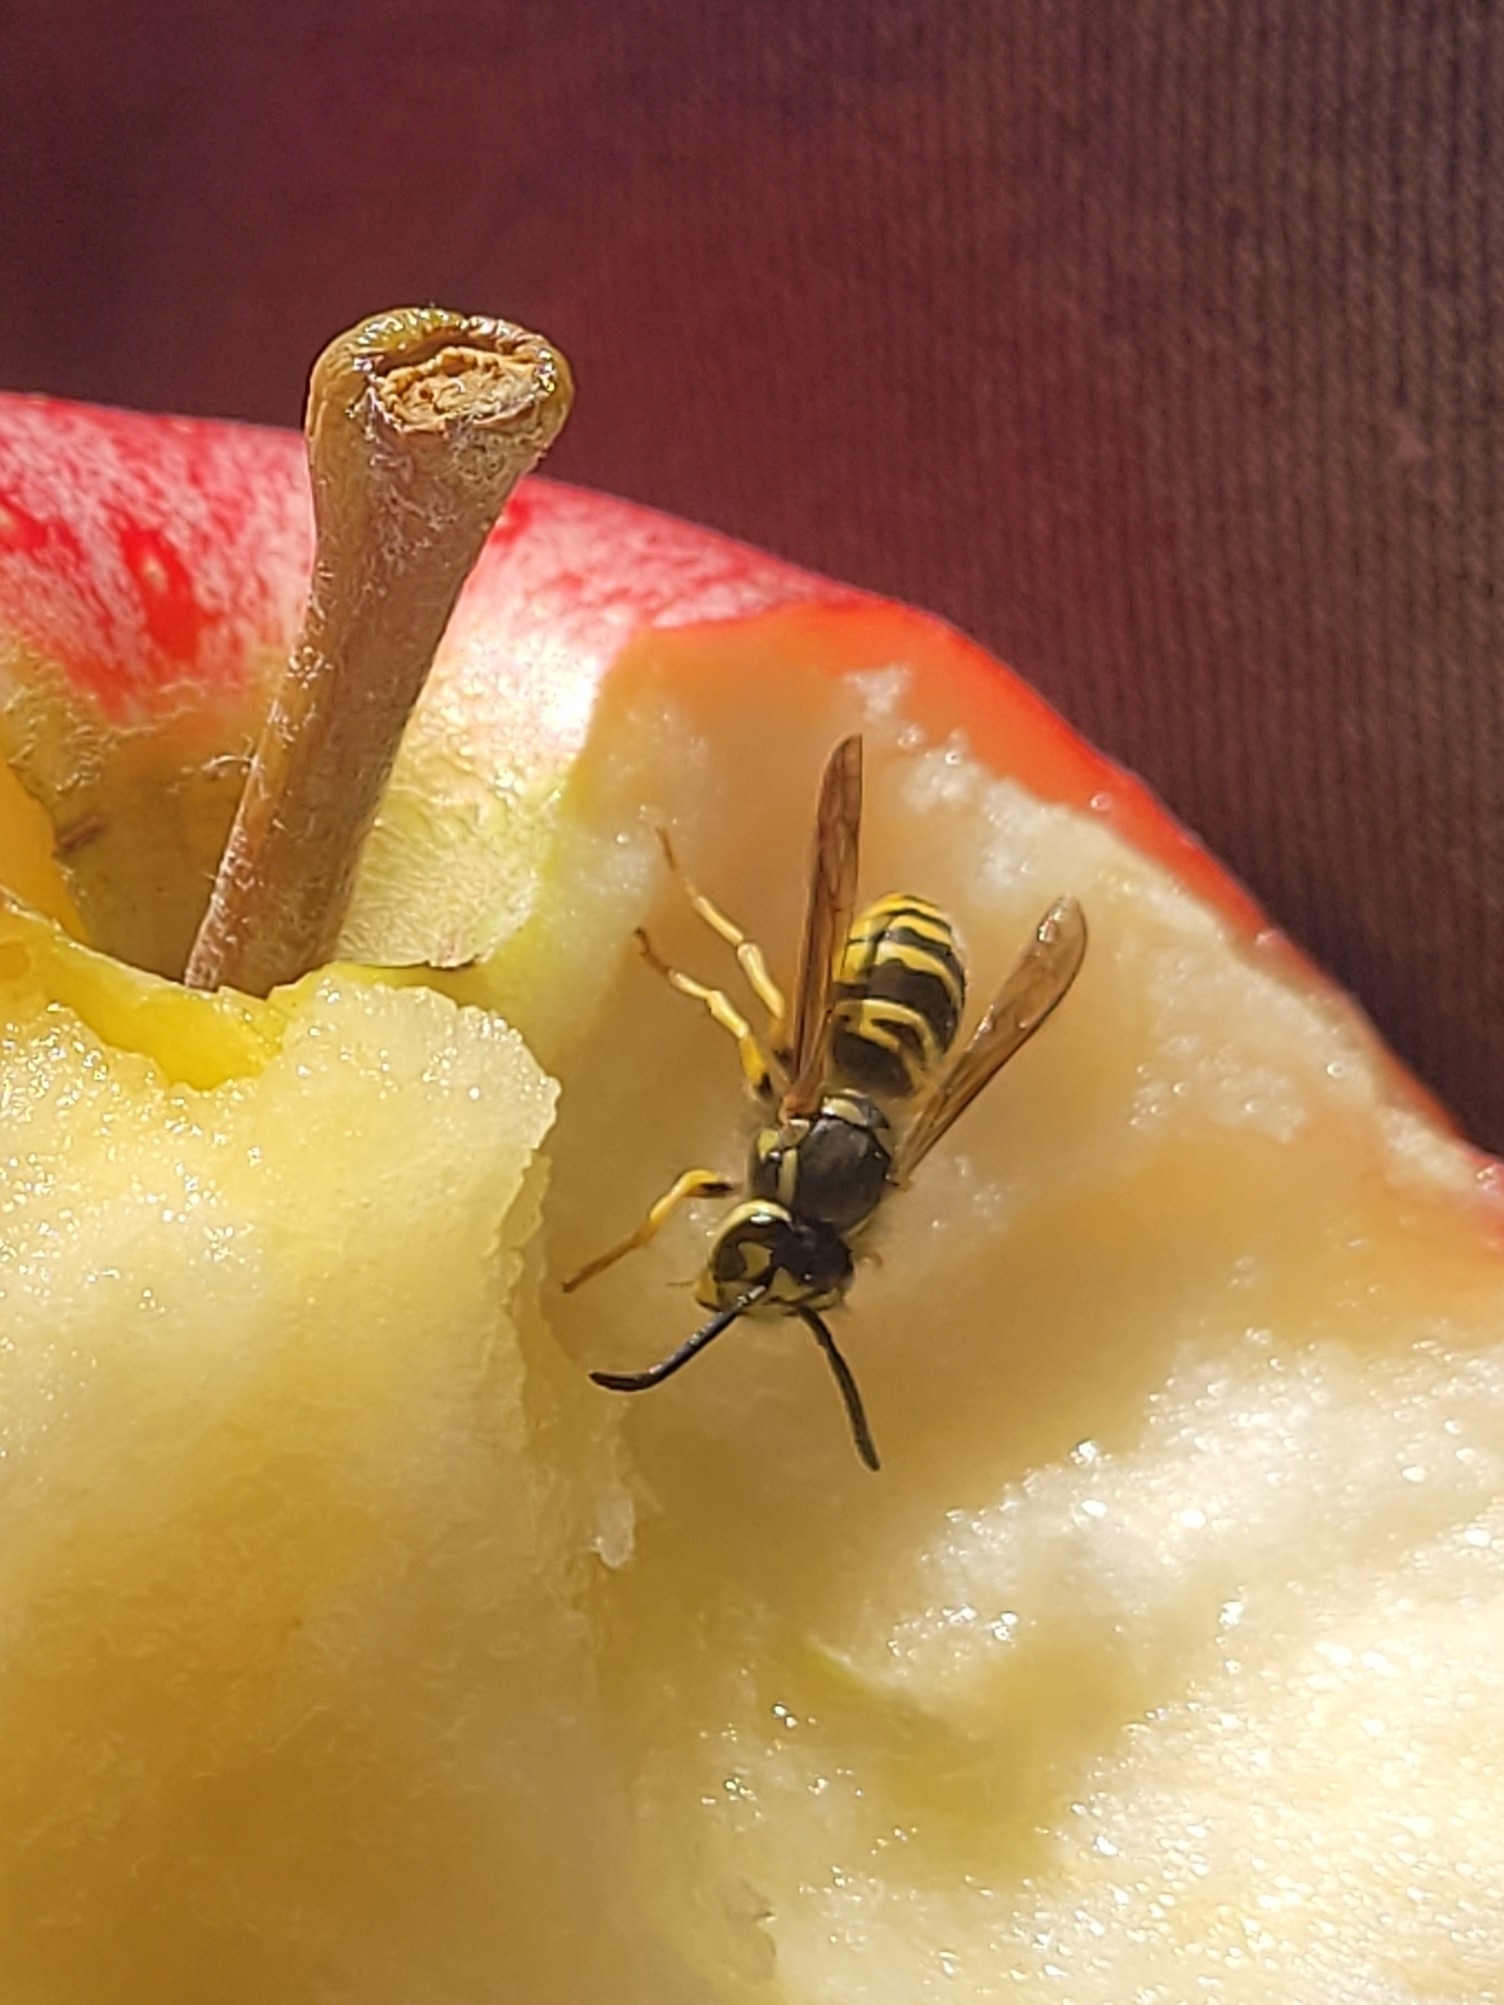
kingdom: Animalia
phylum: Arthropoda
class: Insecta
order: Hymenoptera
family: Vespidae
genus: Vespula
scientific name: Vespula maculifrons
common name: Eastern yellowjacket
